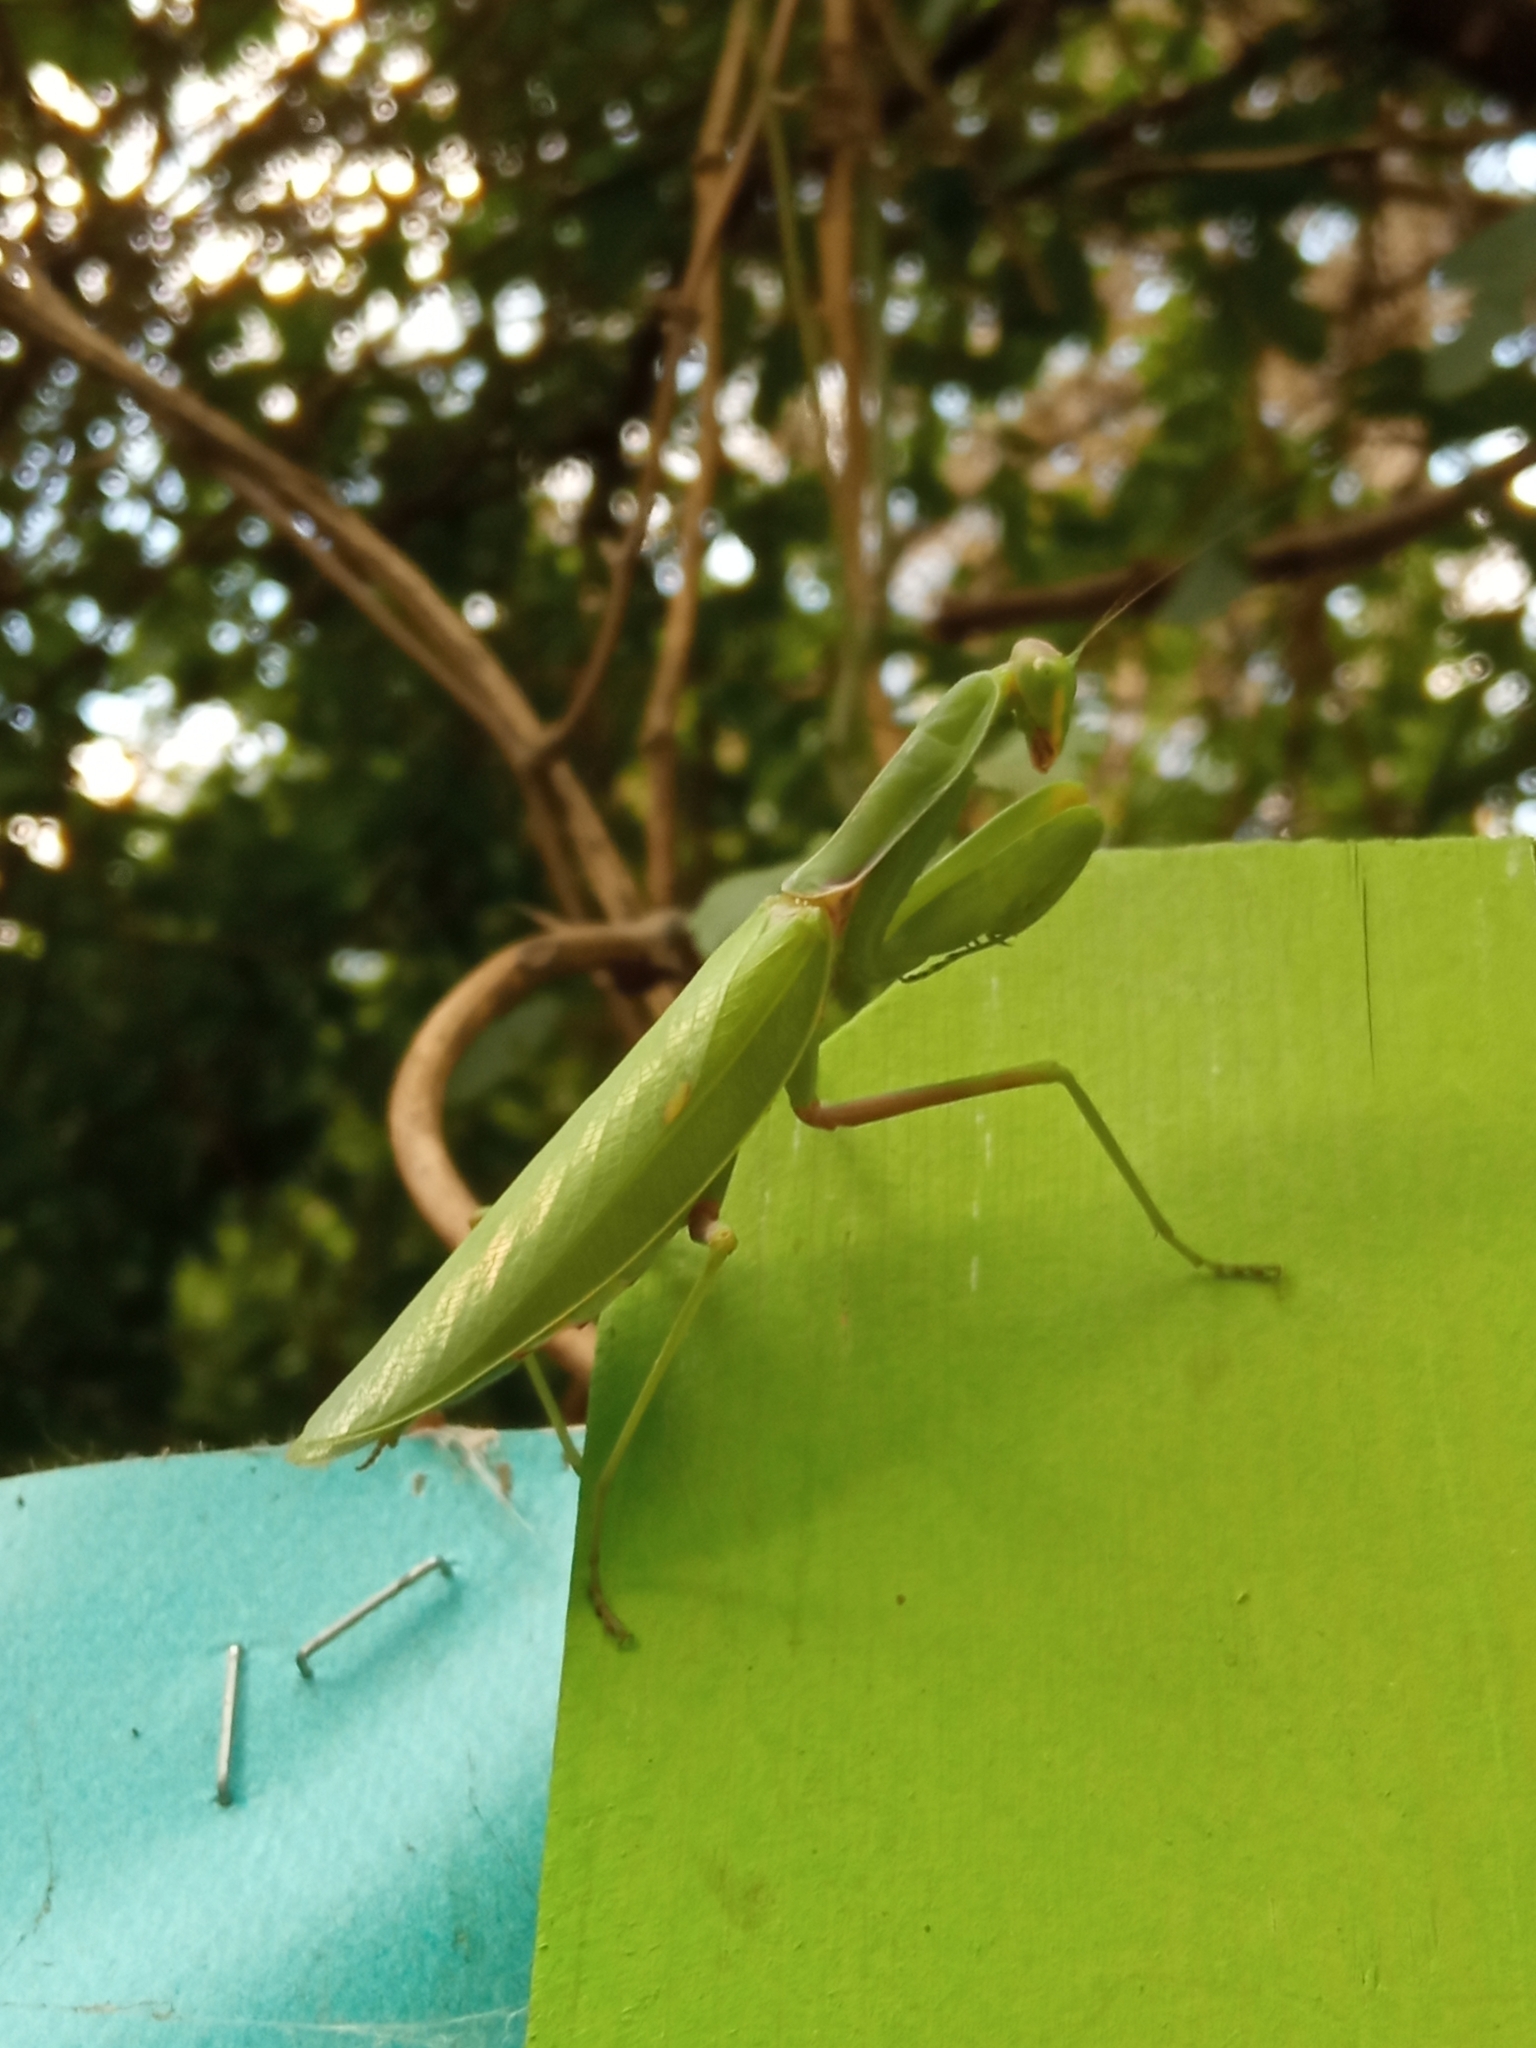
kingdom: Animalia
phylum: Arthropoda
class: Insecta
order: Mantodea
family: Mantidae
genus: Hierodula
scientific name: Hierodula transcaucasica
